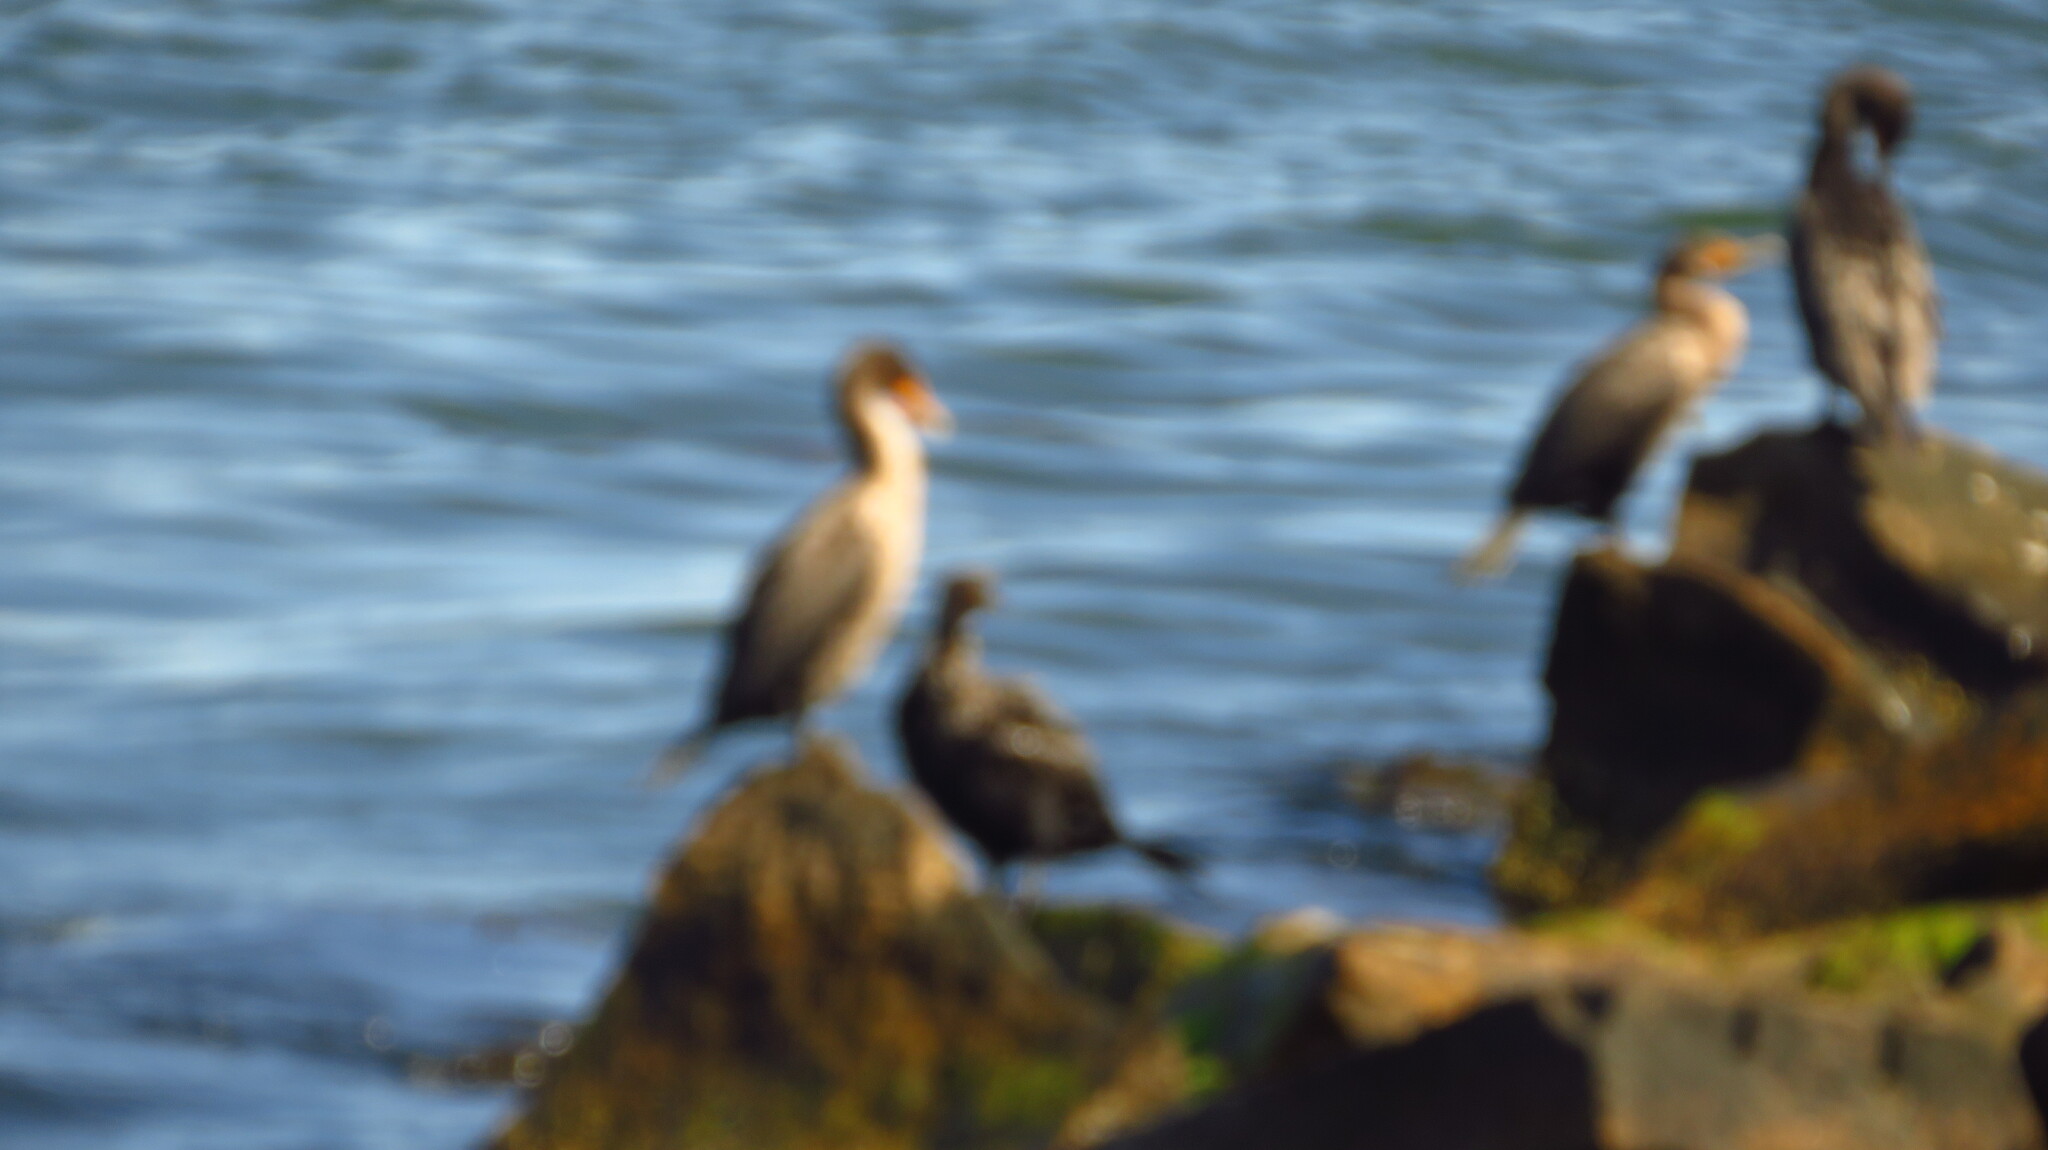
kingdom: Animalia
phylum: Chordata
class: Aves
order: Suliformes
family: Phalacrocoracidae
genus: Phalacrocorax
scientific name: Phalacrocorax auritus
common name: Double-crested cormorant
